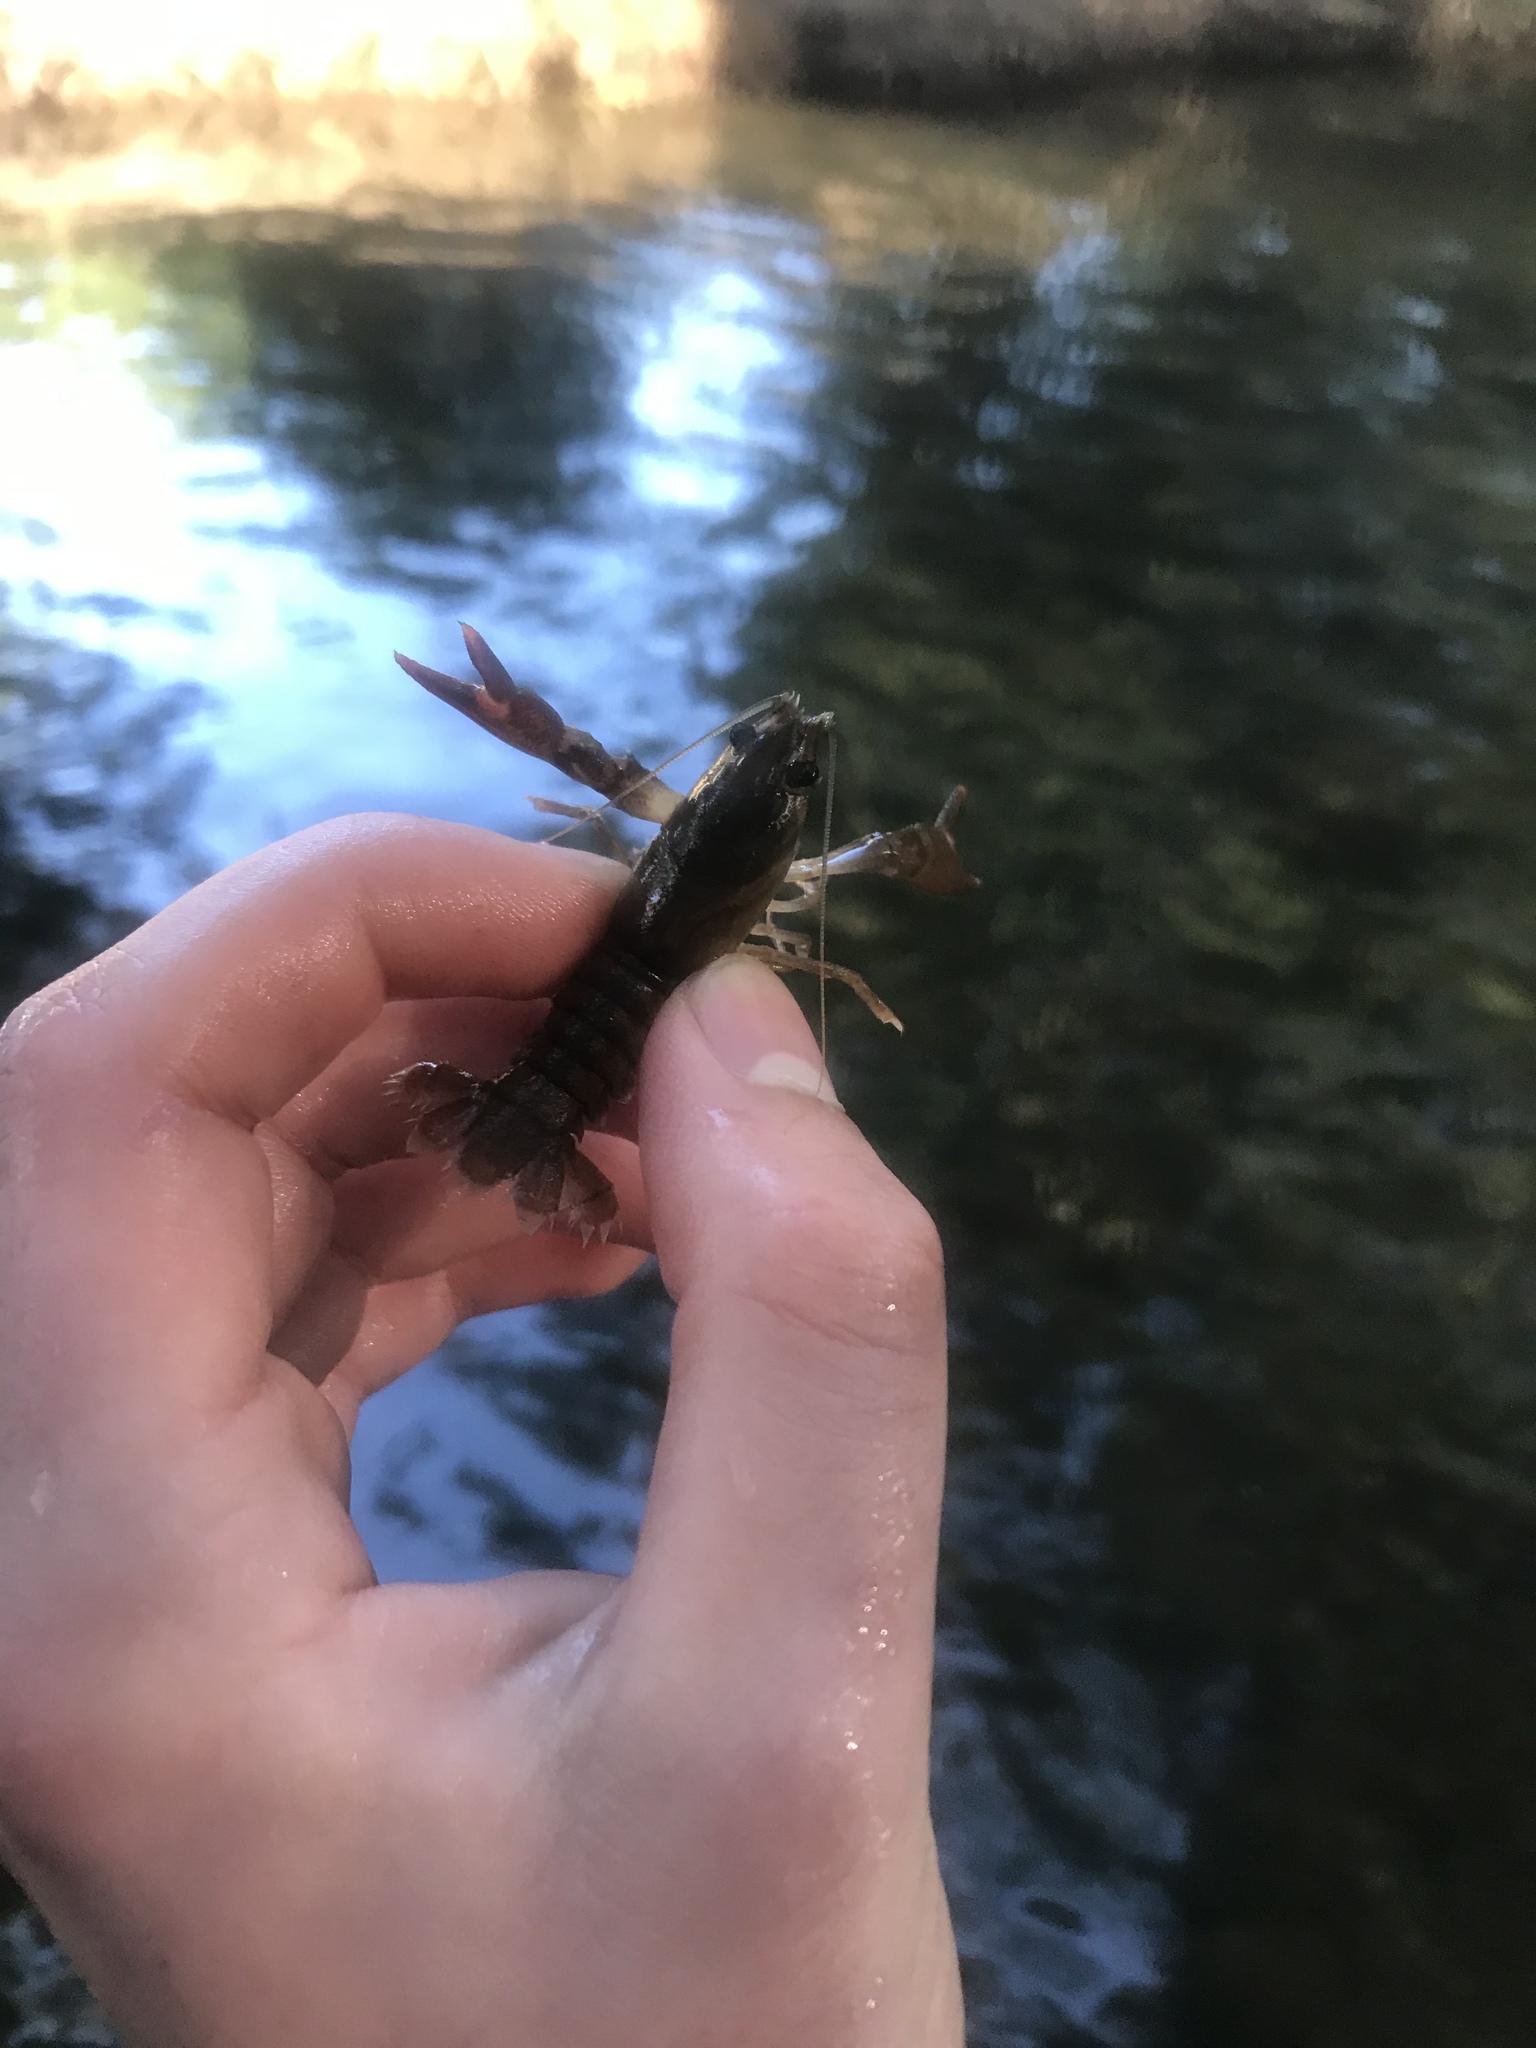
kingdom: Animalia
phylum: Arthropoda
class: Malacostraca
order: Decapoda
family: Astacidae
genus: Pacifastacus
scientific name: Pacifastacus leniusculus
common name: Signal crayfish
